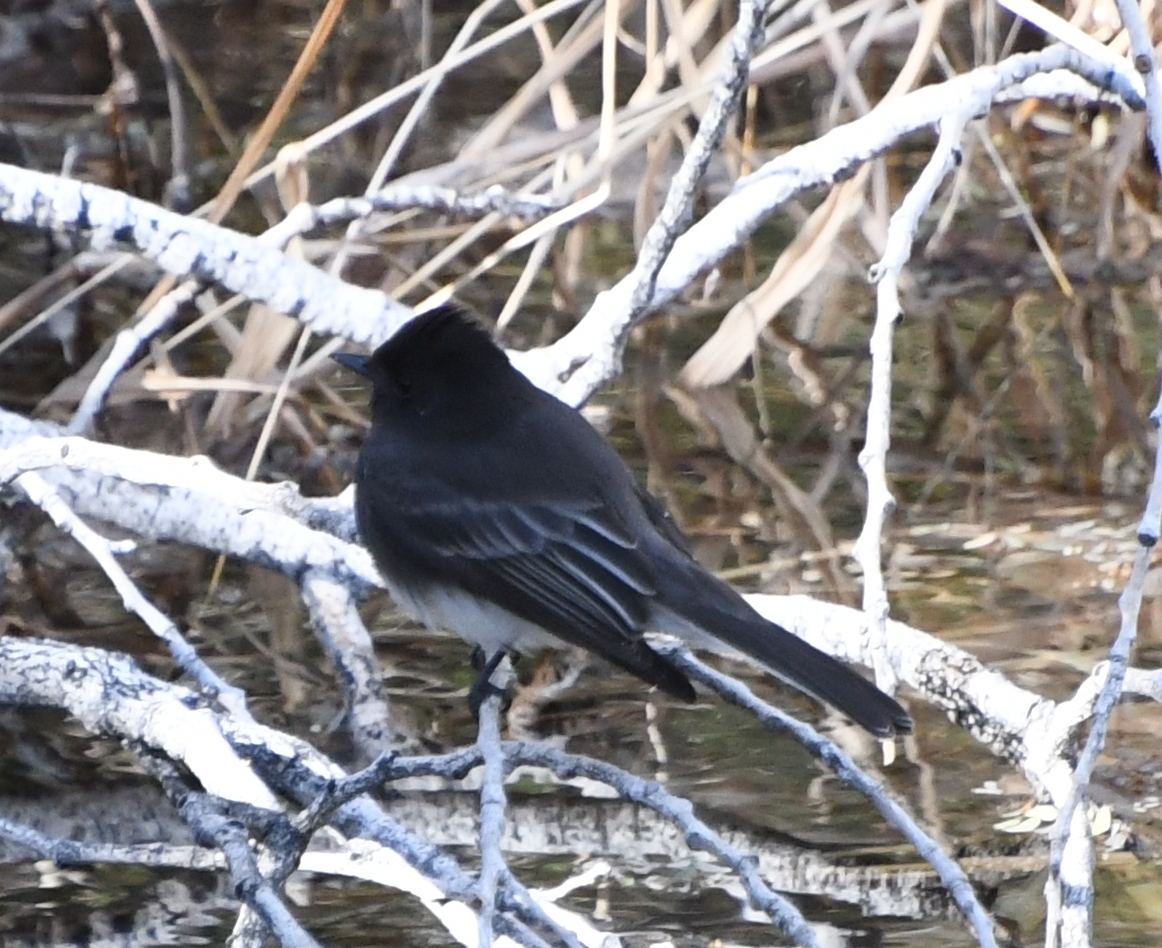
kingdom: Animalia
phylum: Chordata
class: Aves
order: Passeriformes
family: Tyrannidae
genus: Sayornis
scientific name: Sayornis nigricans
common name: Black phoebe
